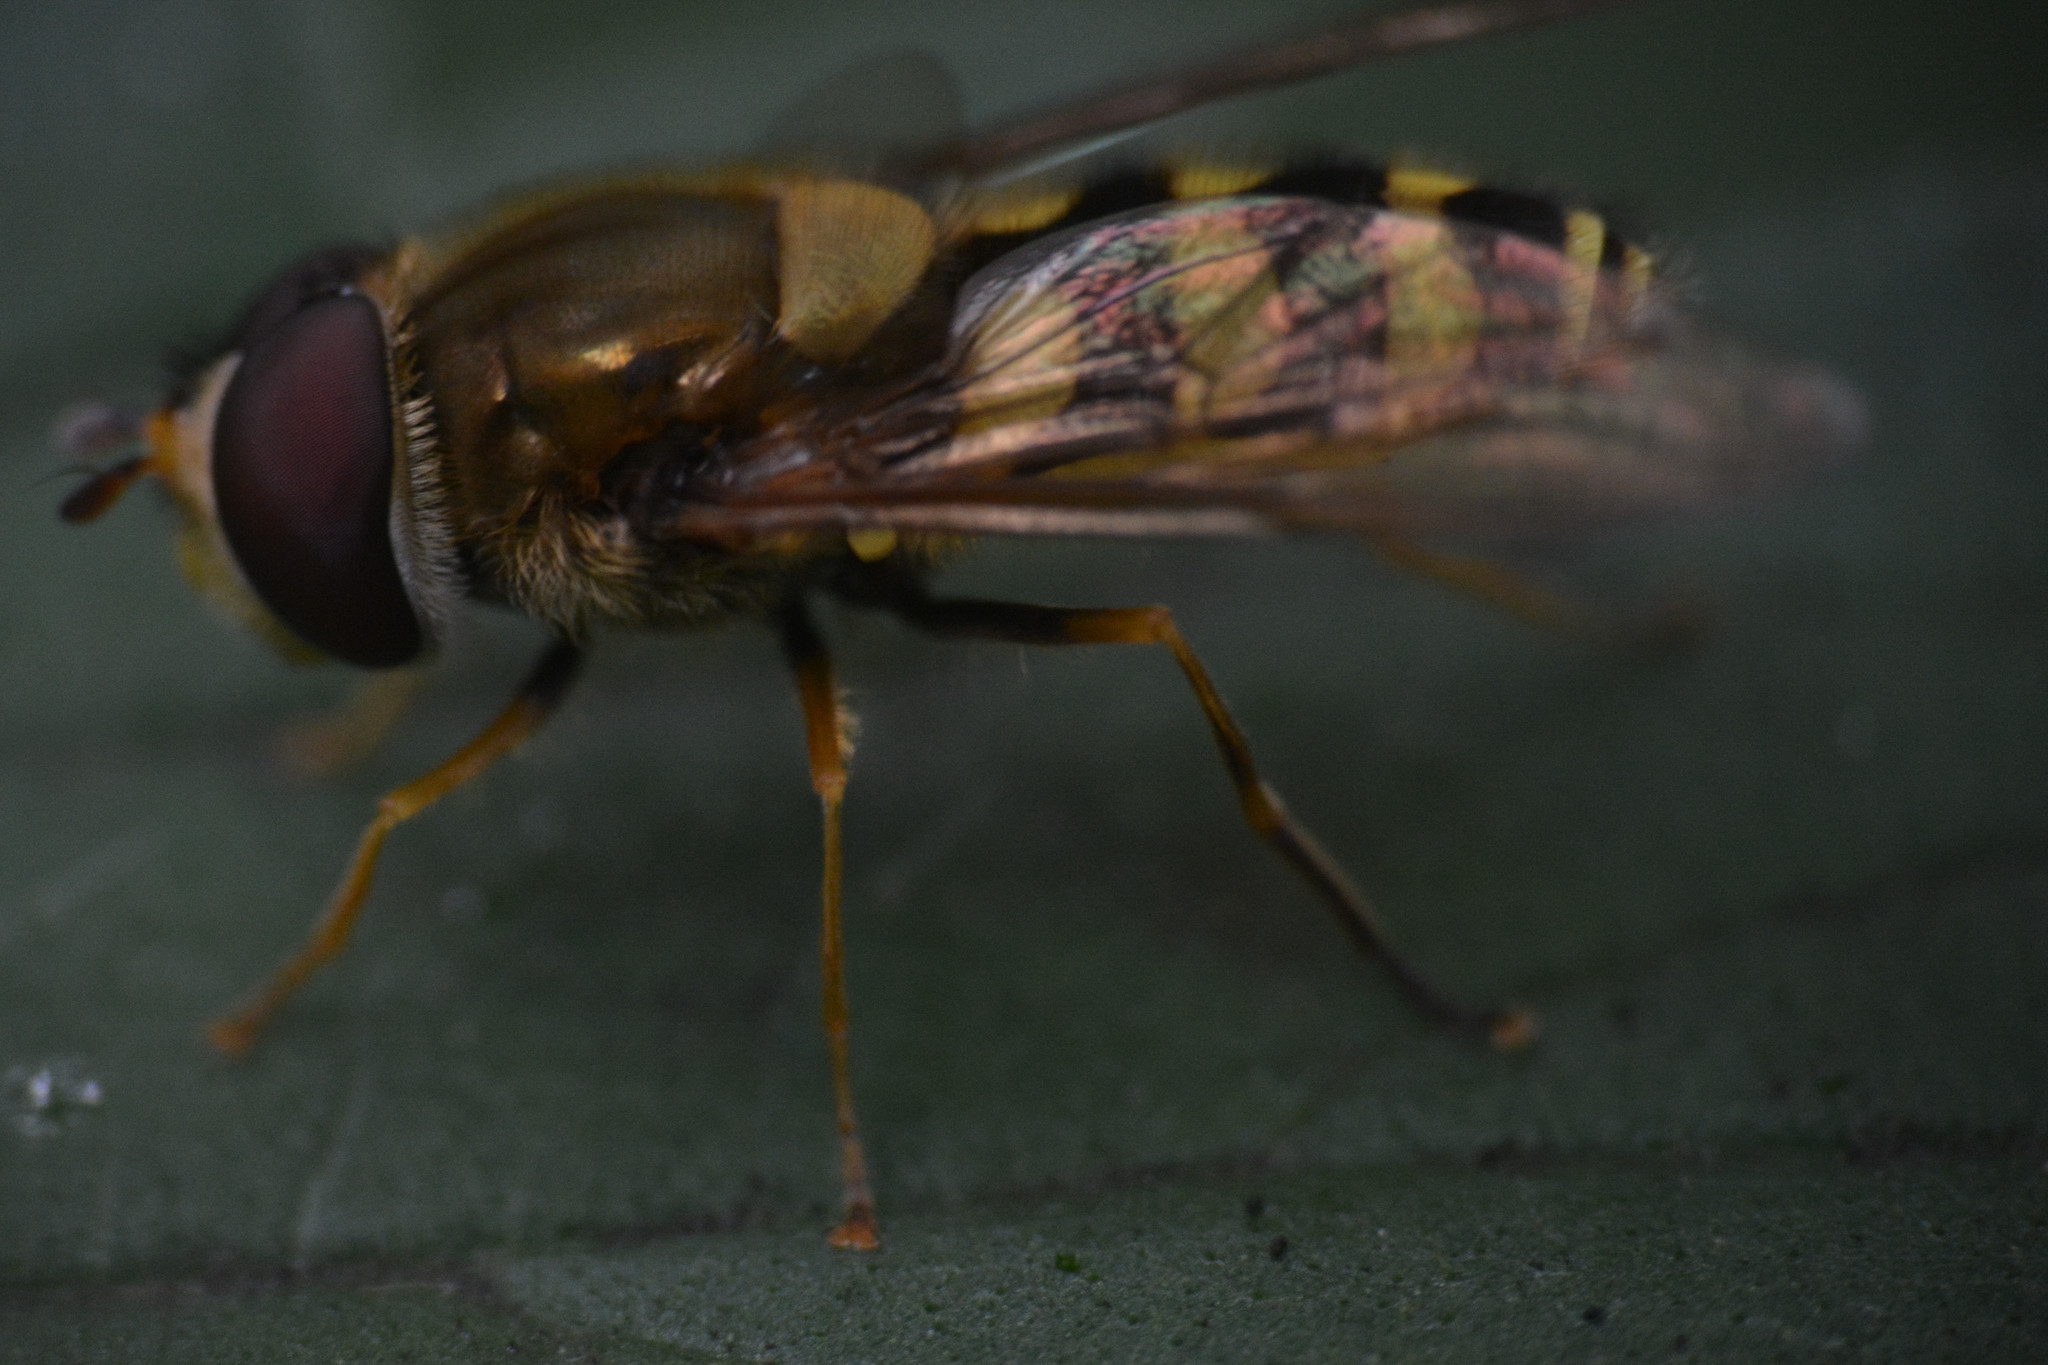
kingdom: Animalia
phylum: Arthropoda
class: Insecta
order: Diptera
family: Syrphidae
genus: Syrphus
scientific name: Syrphus
